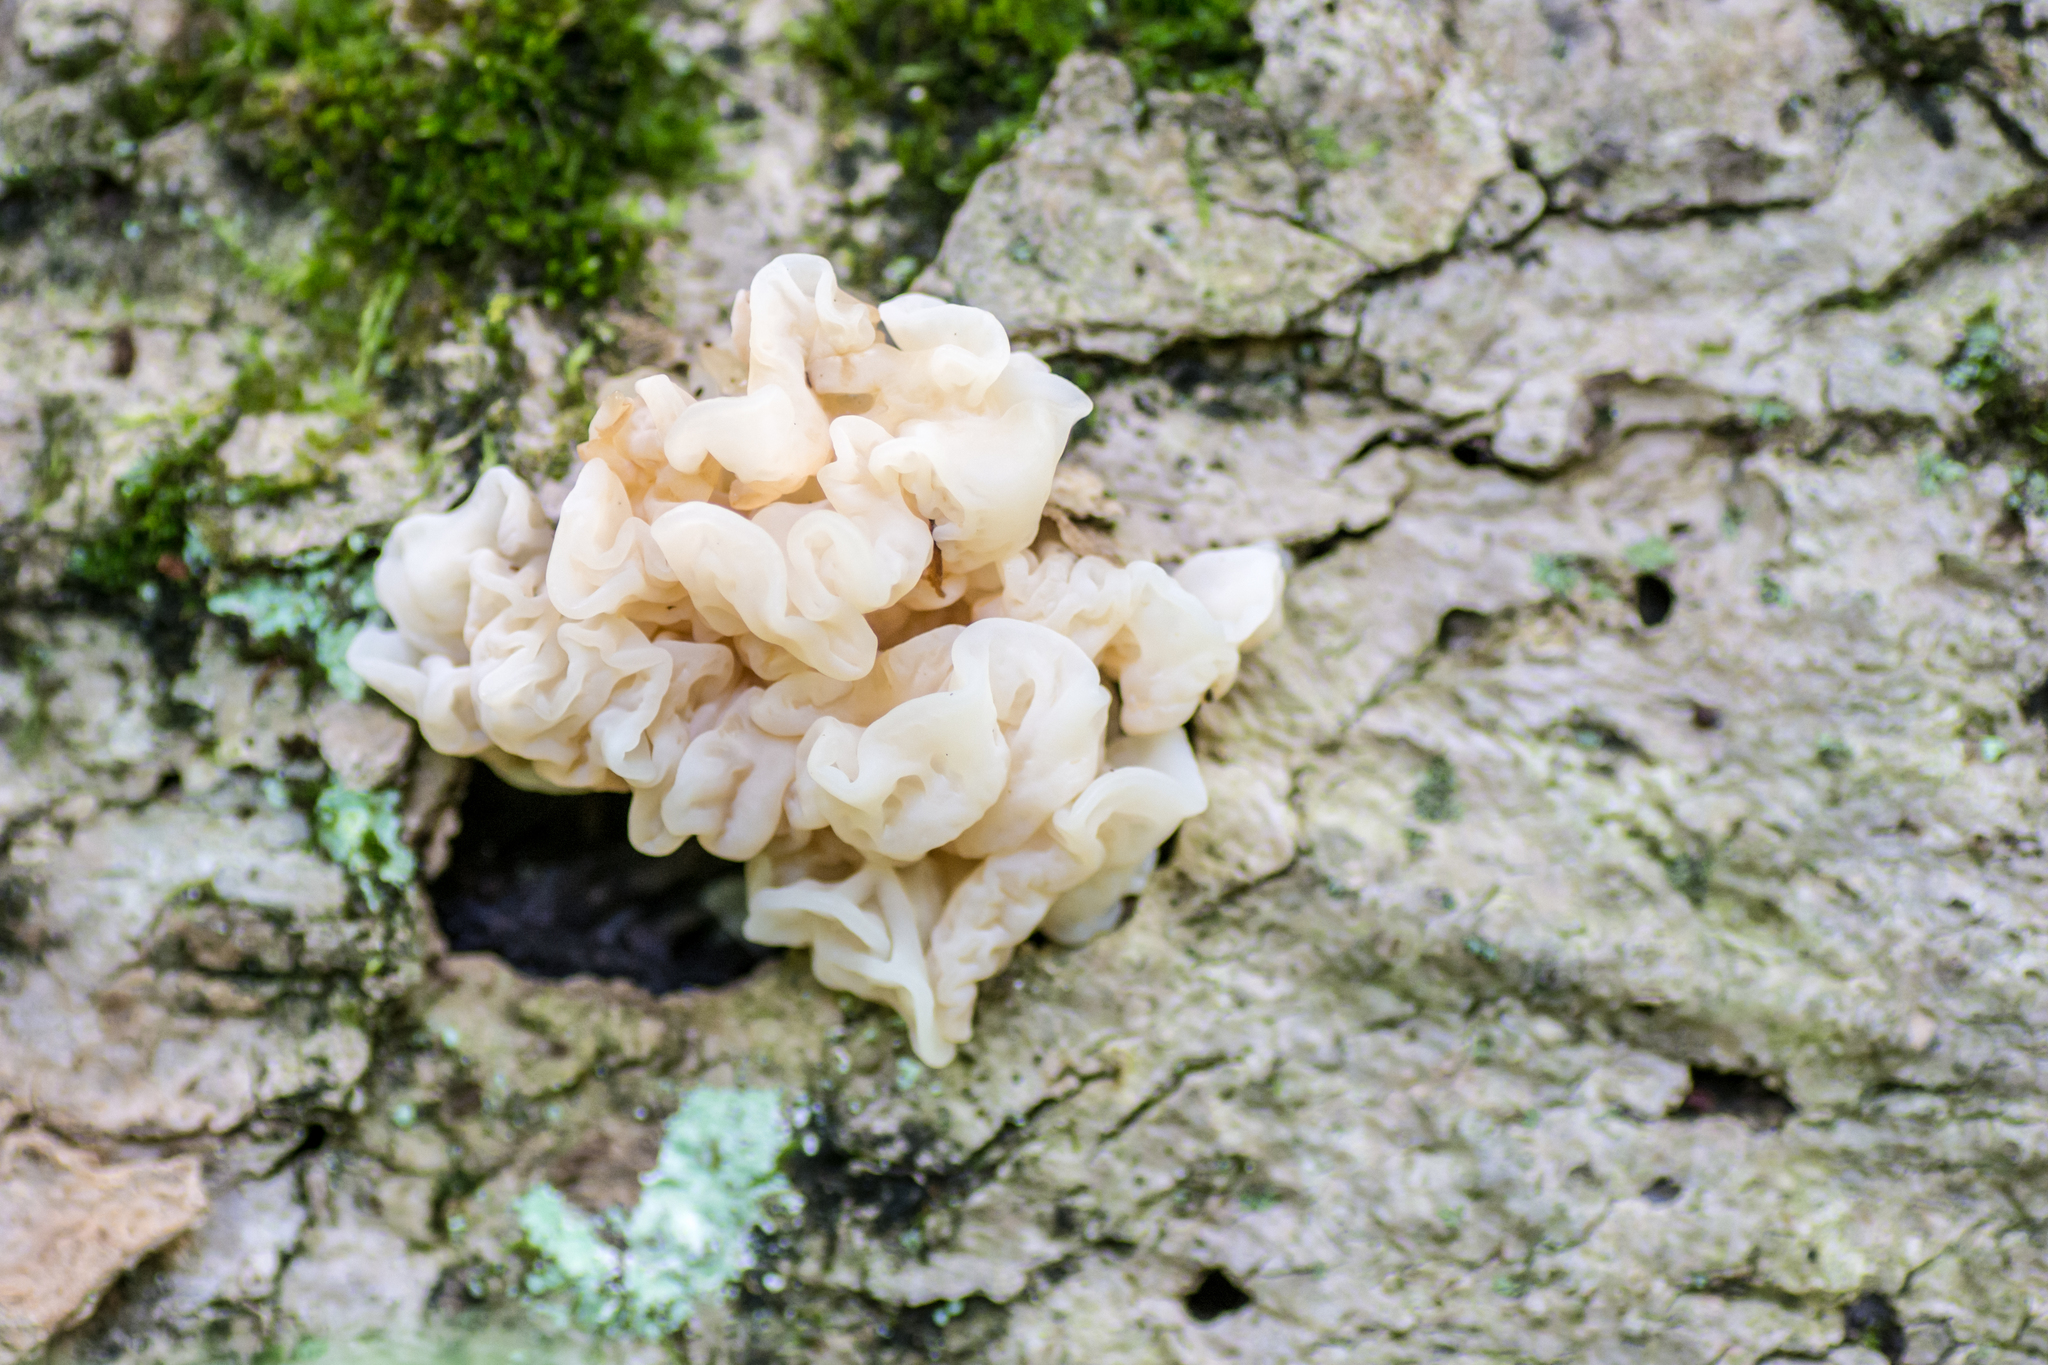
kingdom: Fungi
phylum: Basidiomycota
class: Agaricomycetes
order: Auriculariales
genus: Ductifera
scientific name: Ductifera pululahuana
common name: White jelly fungus
